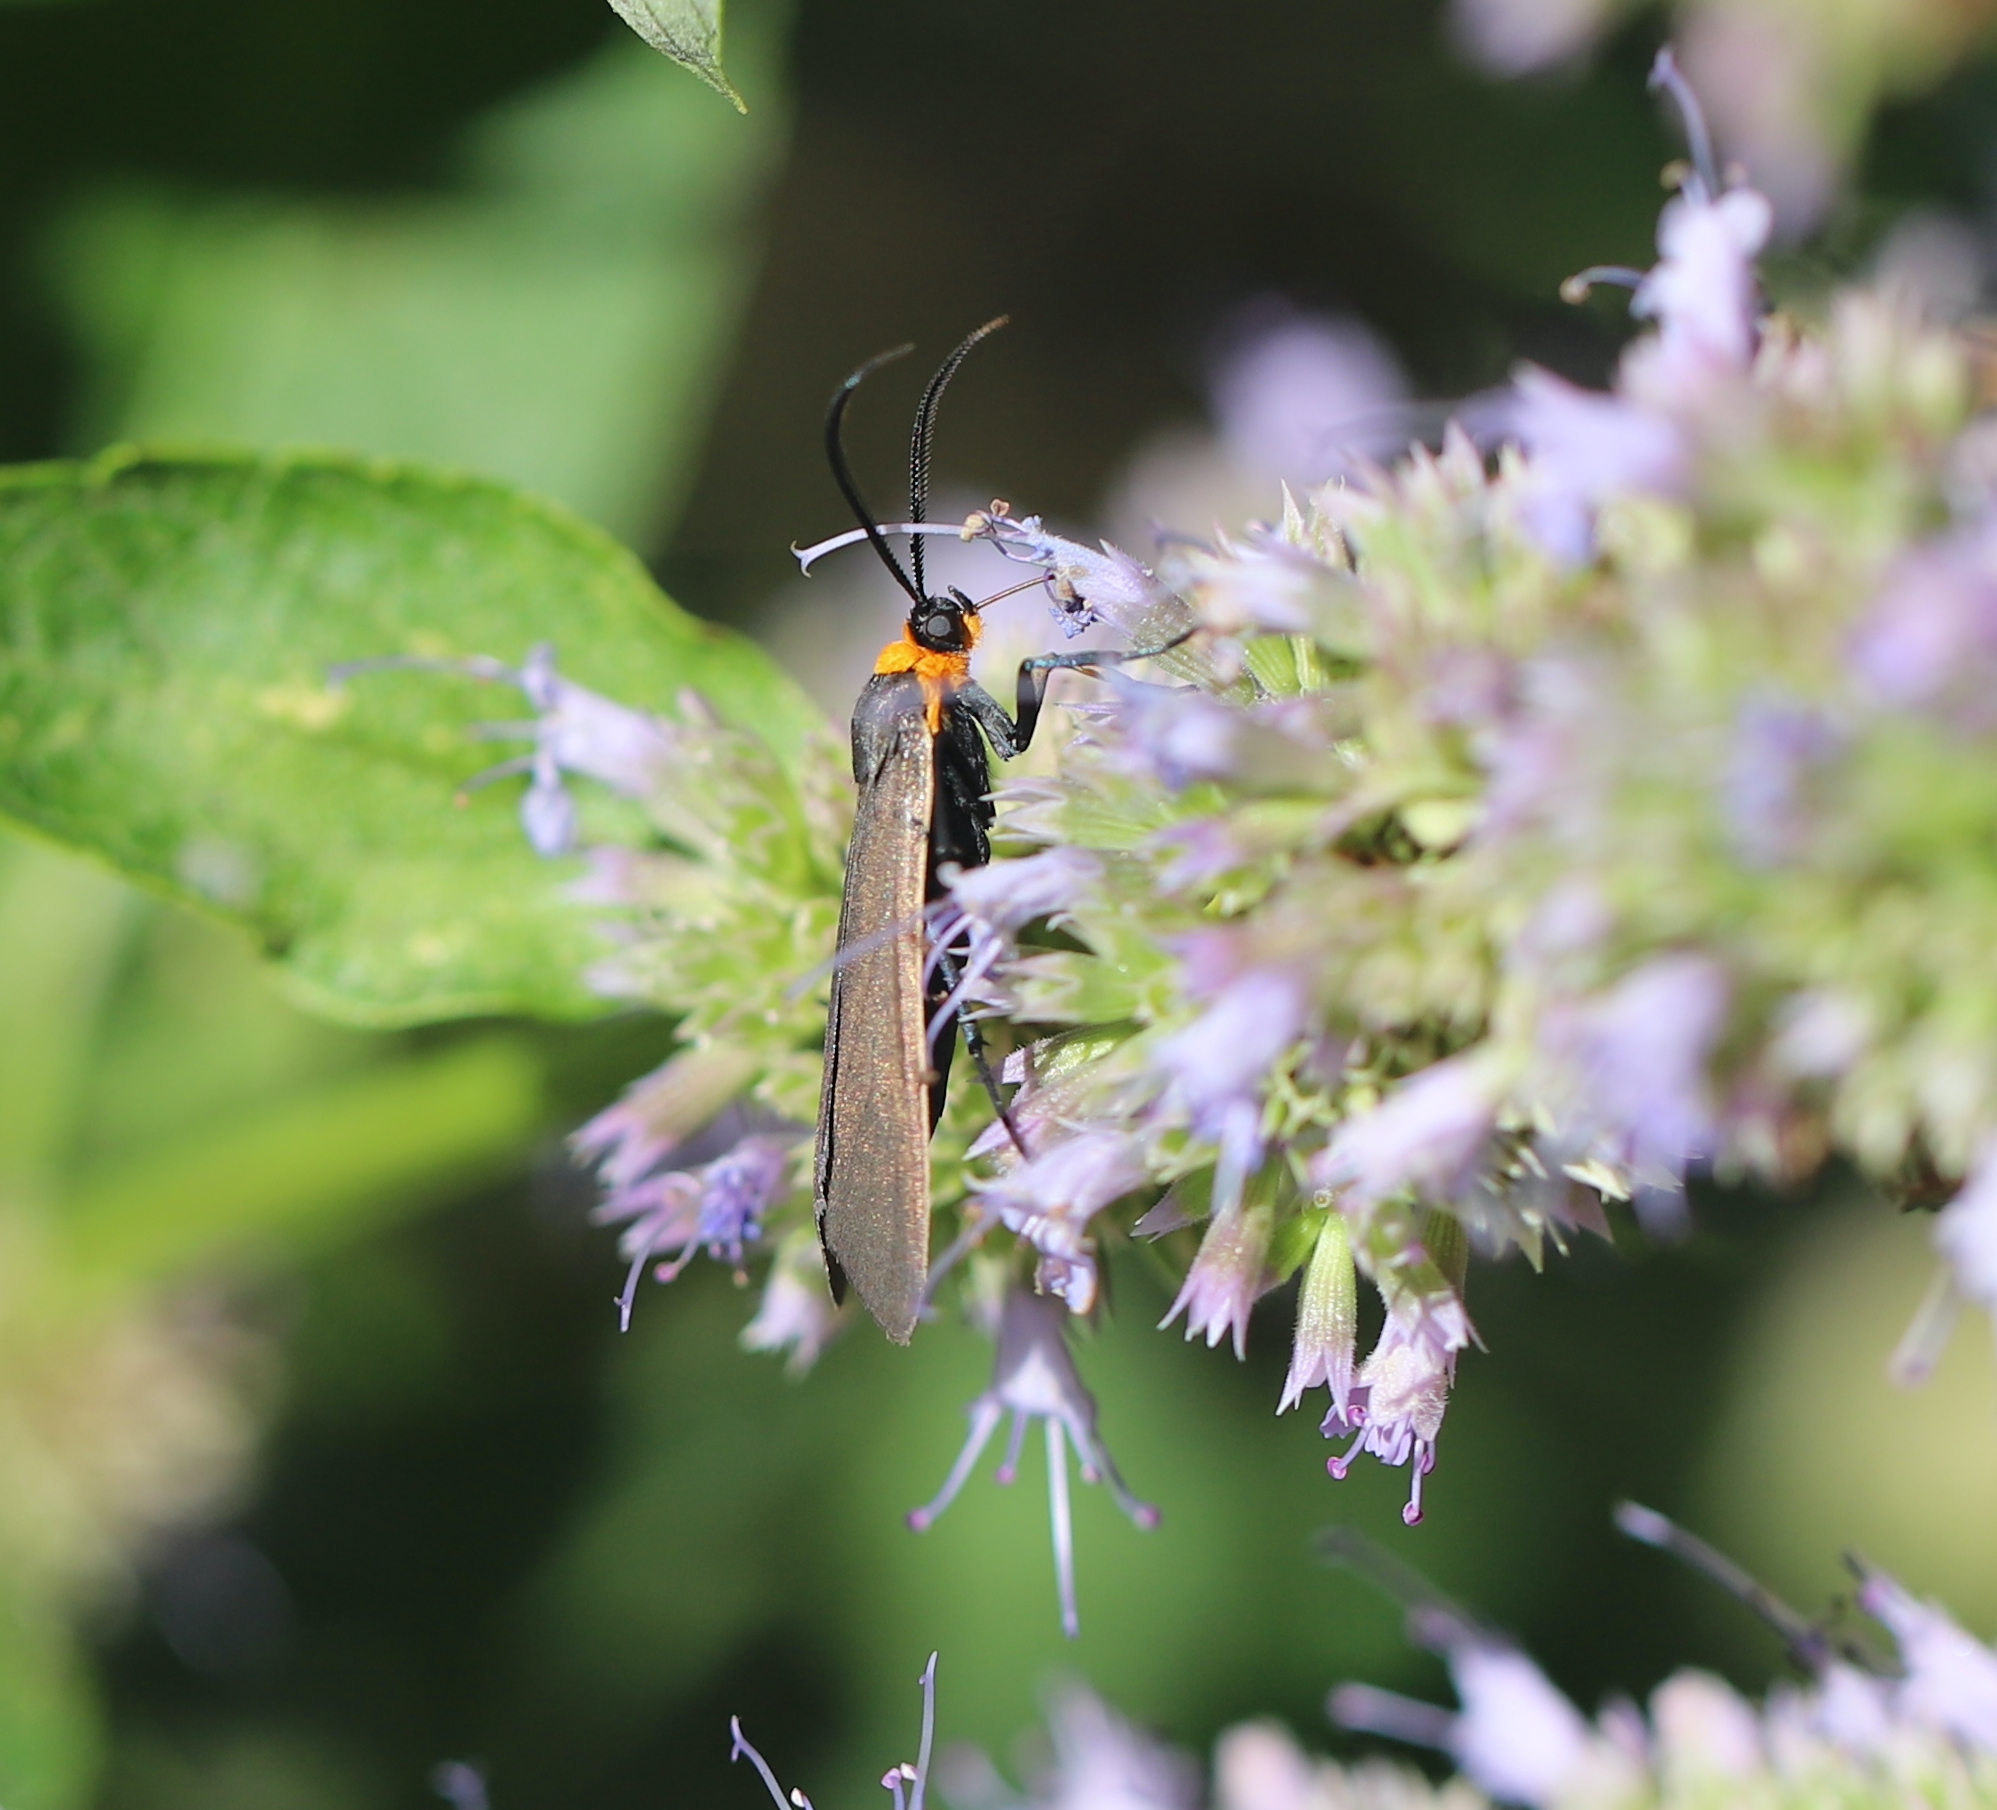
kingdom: Animalia
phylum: Arthropoda
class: Insecta
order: Lepidoptera
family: Erebidae
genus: Cisseps
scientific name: Cisseps fulvicollis
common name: Yellow-collared scape moth
